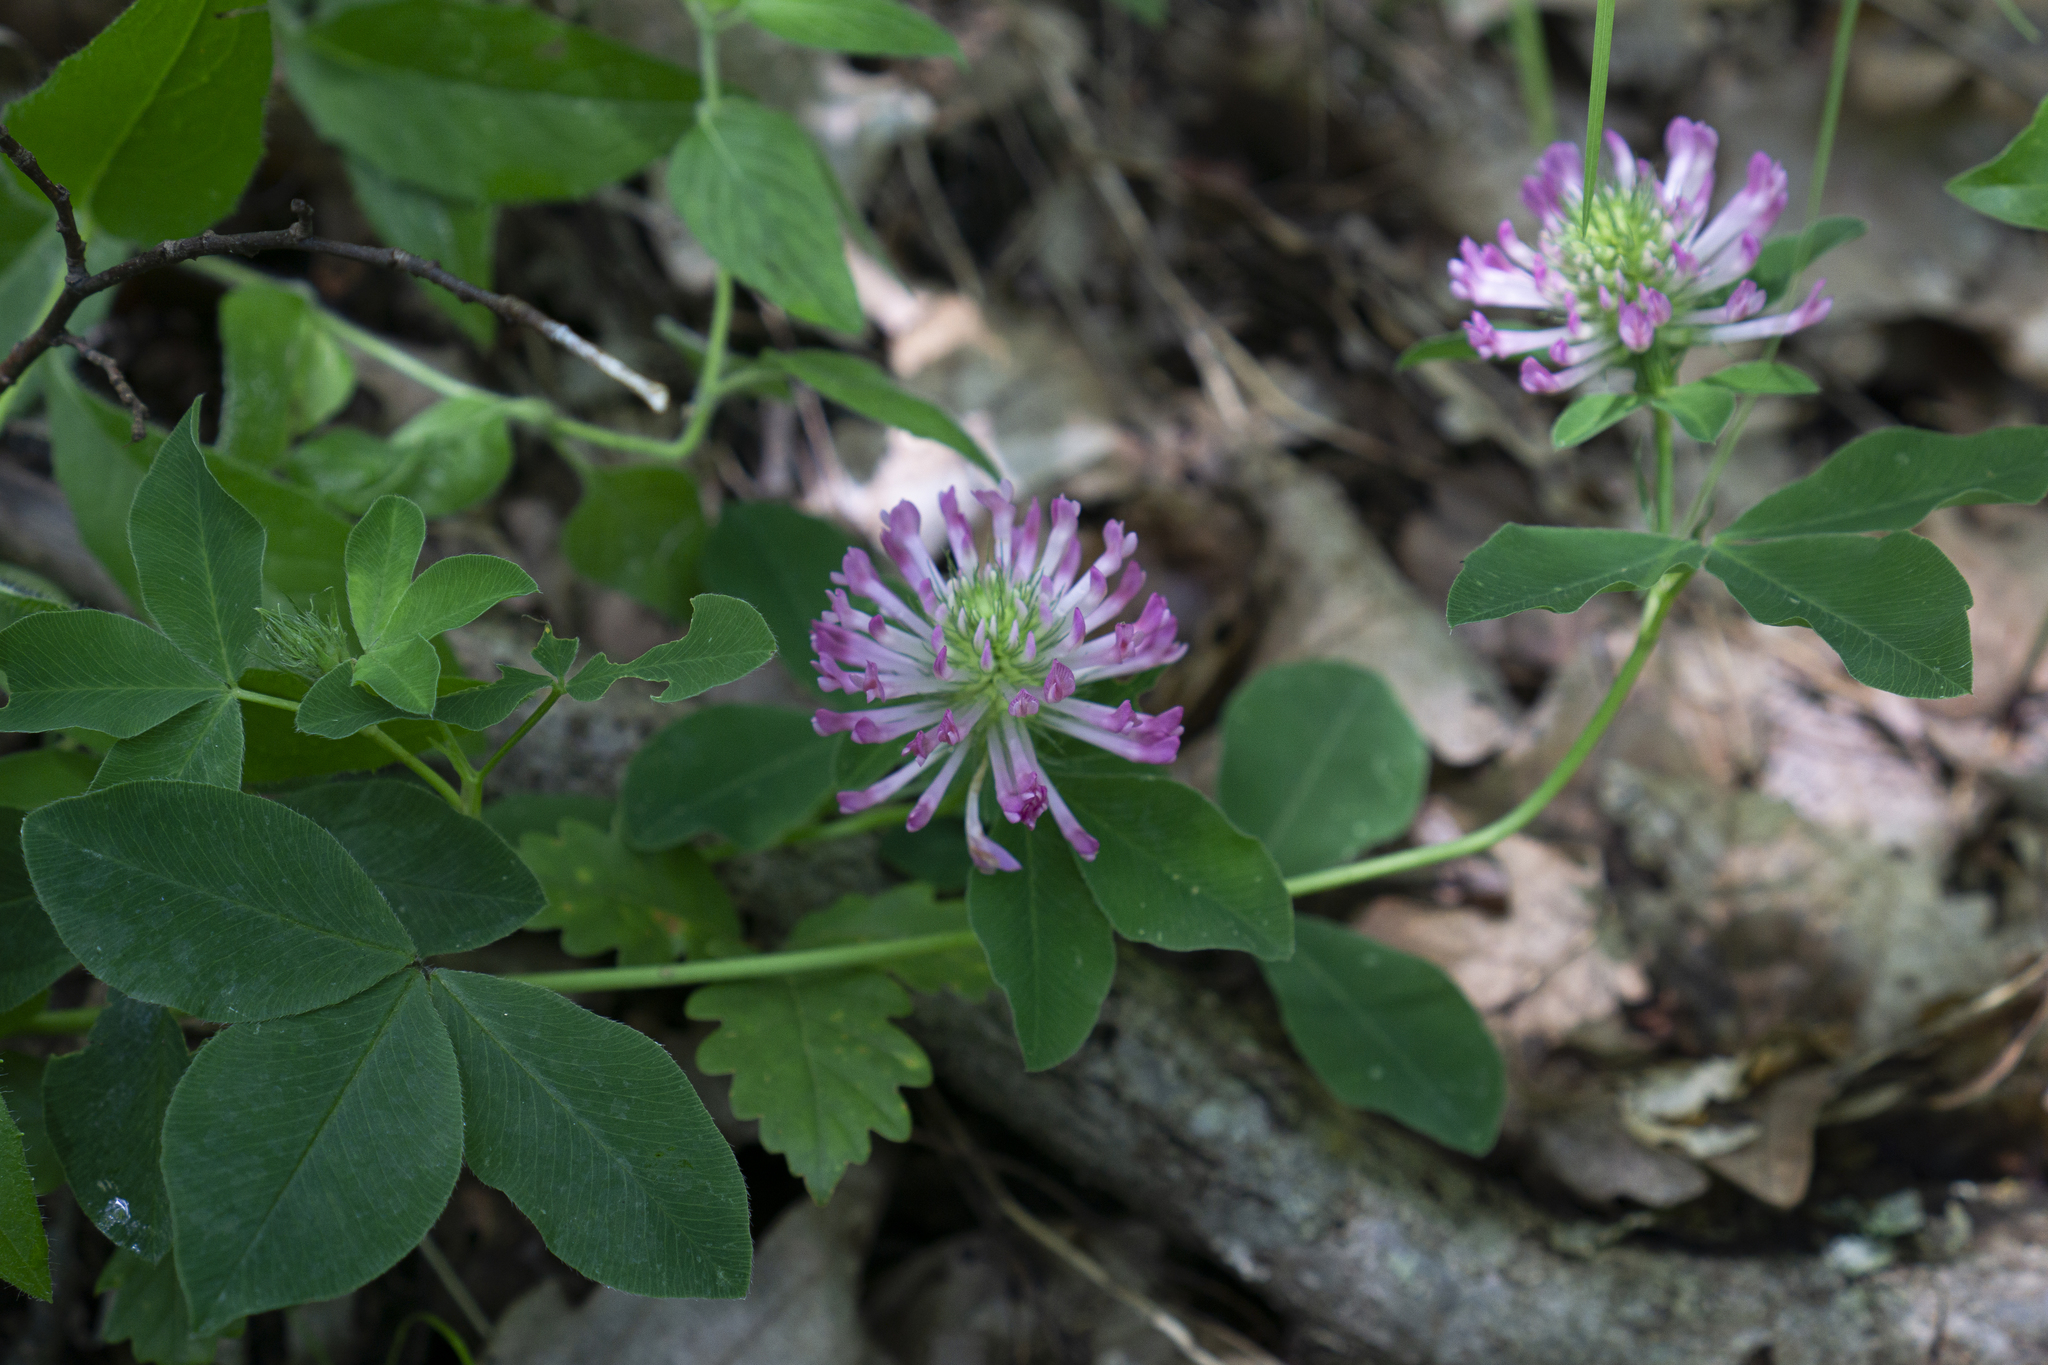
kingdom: Plantae
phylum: Tracheophyta
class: Magnoliopsida
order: Fabales
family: Fabaceae
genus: Trifolium
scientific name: Trifolium medium
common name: Zigzag clover
